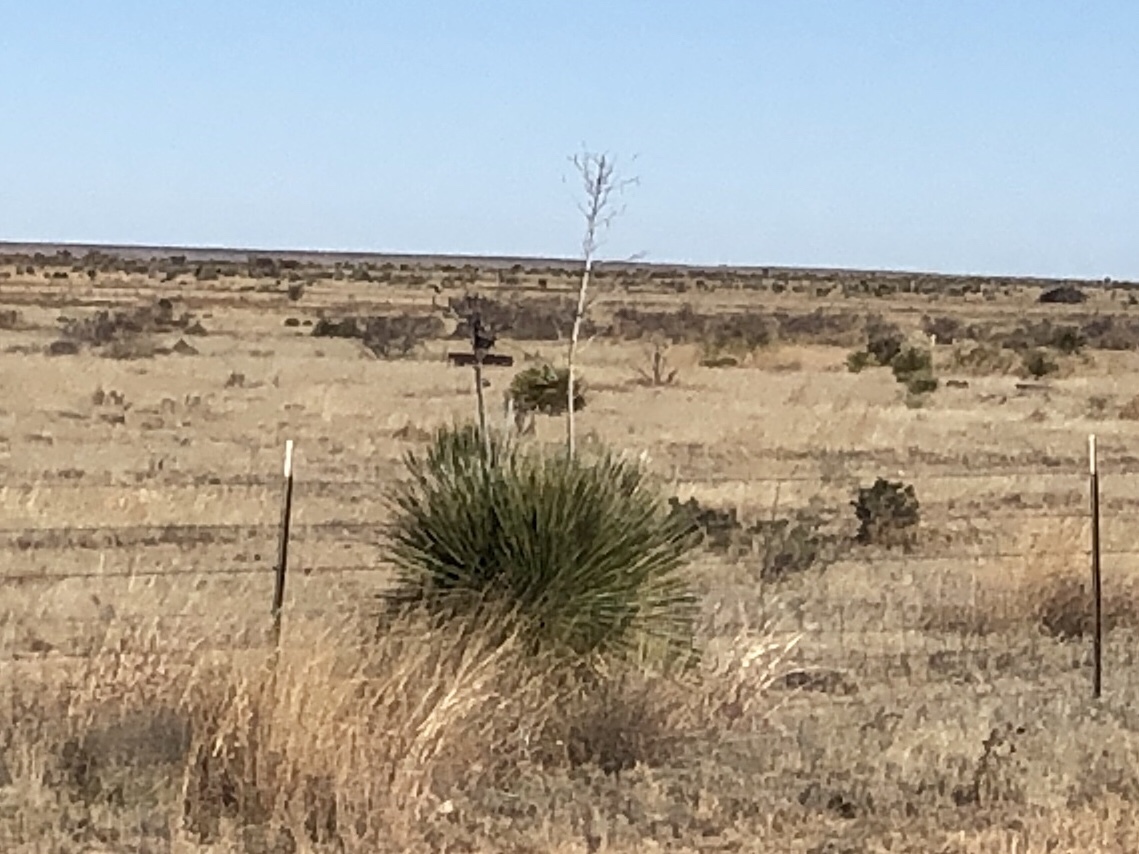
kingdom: Plantae
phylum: Tracheophyta
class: Liliopsida
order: Asparagales
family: Asparagaceae
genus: Yucca
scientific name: Yucca elata
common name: Palmella
